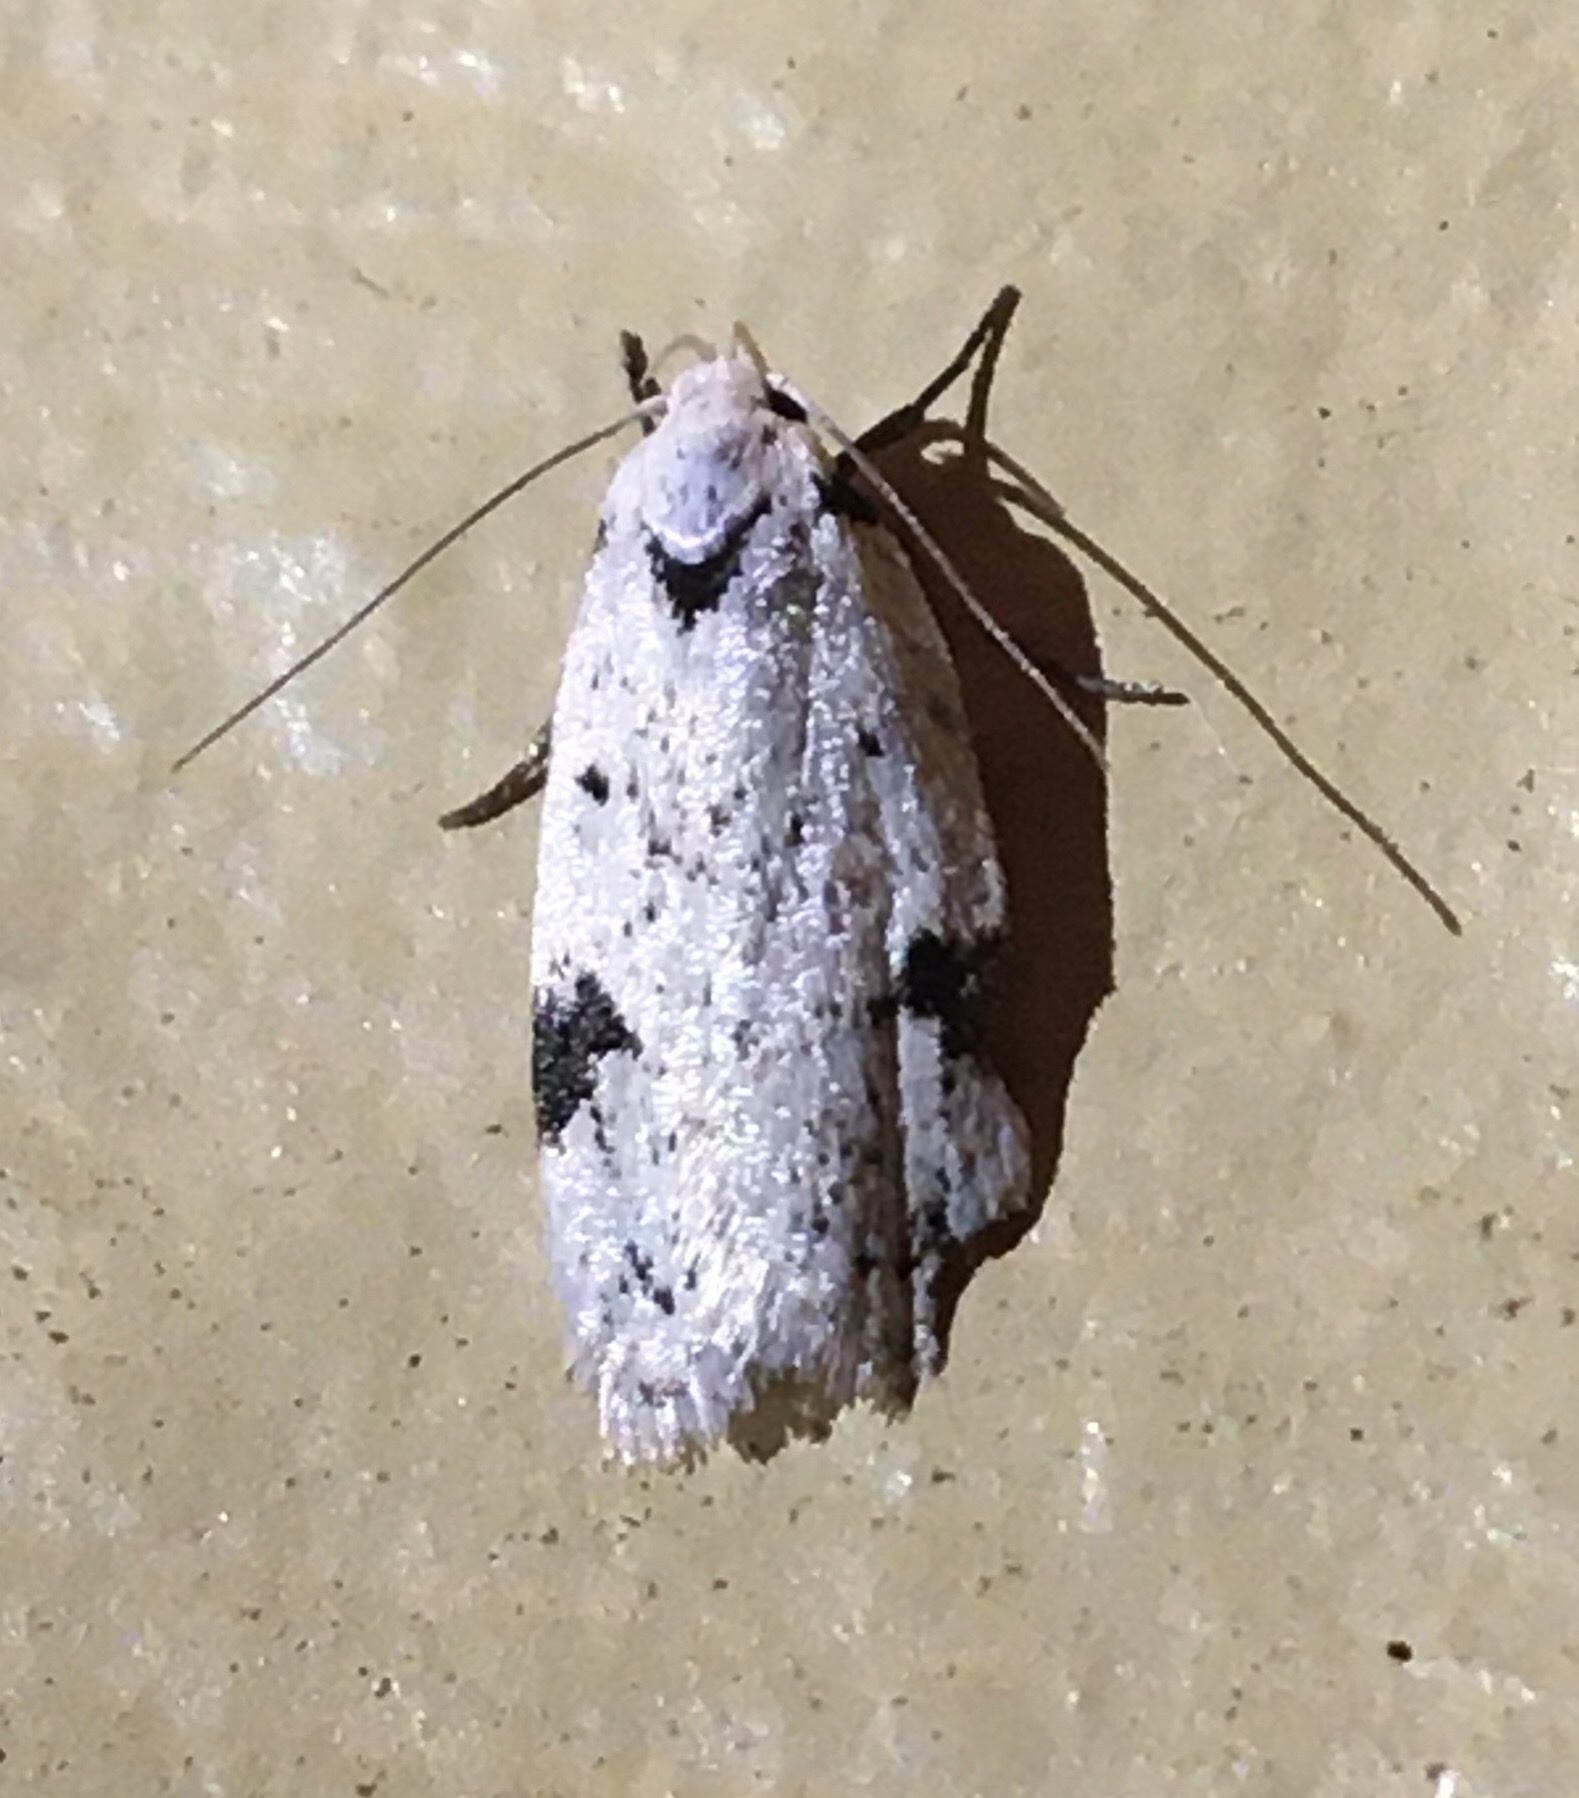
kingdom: Animalia
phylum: Arthropoda
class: Insecta
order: Lepidoptera
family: Oecophoridae
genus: Inga
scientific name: Inga sparsiciliella
